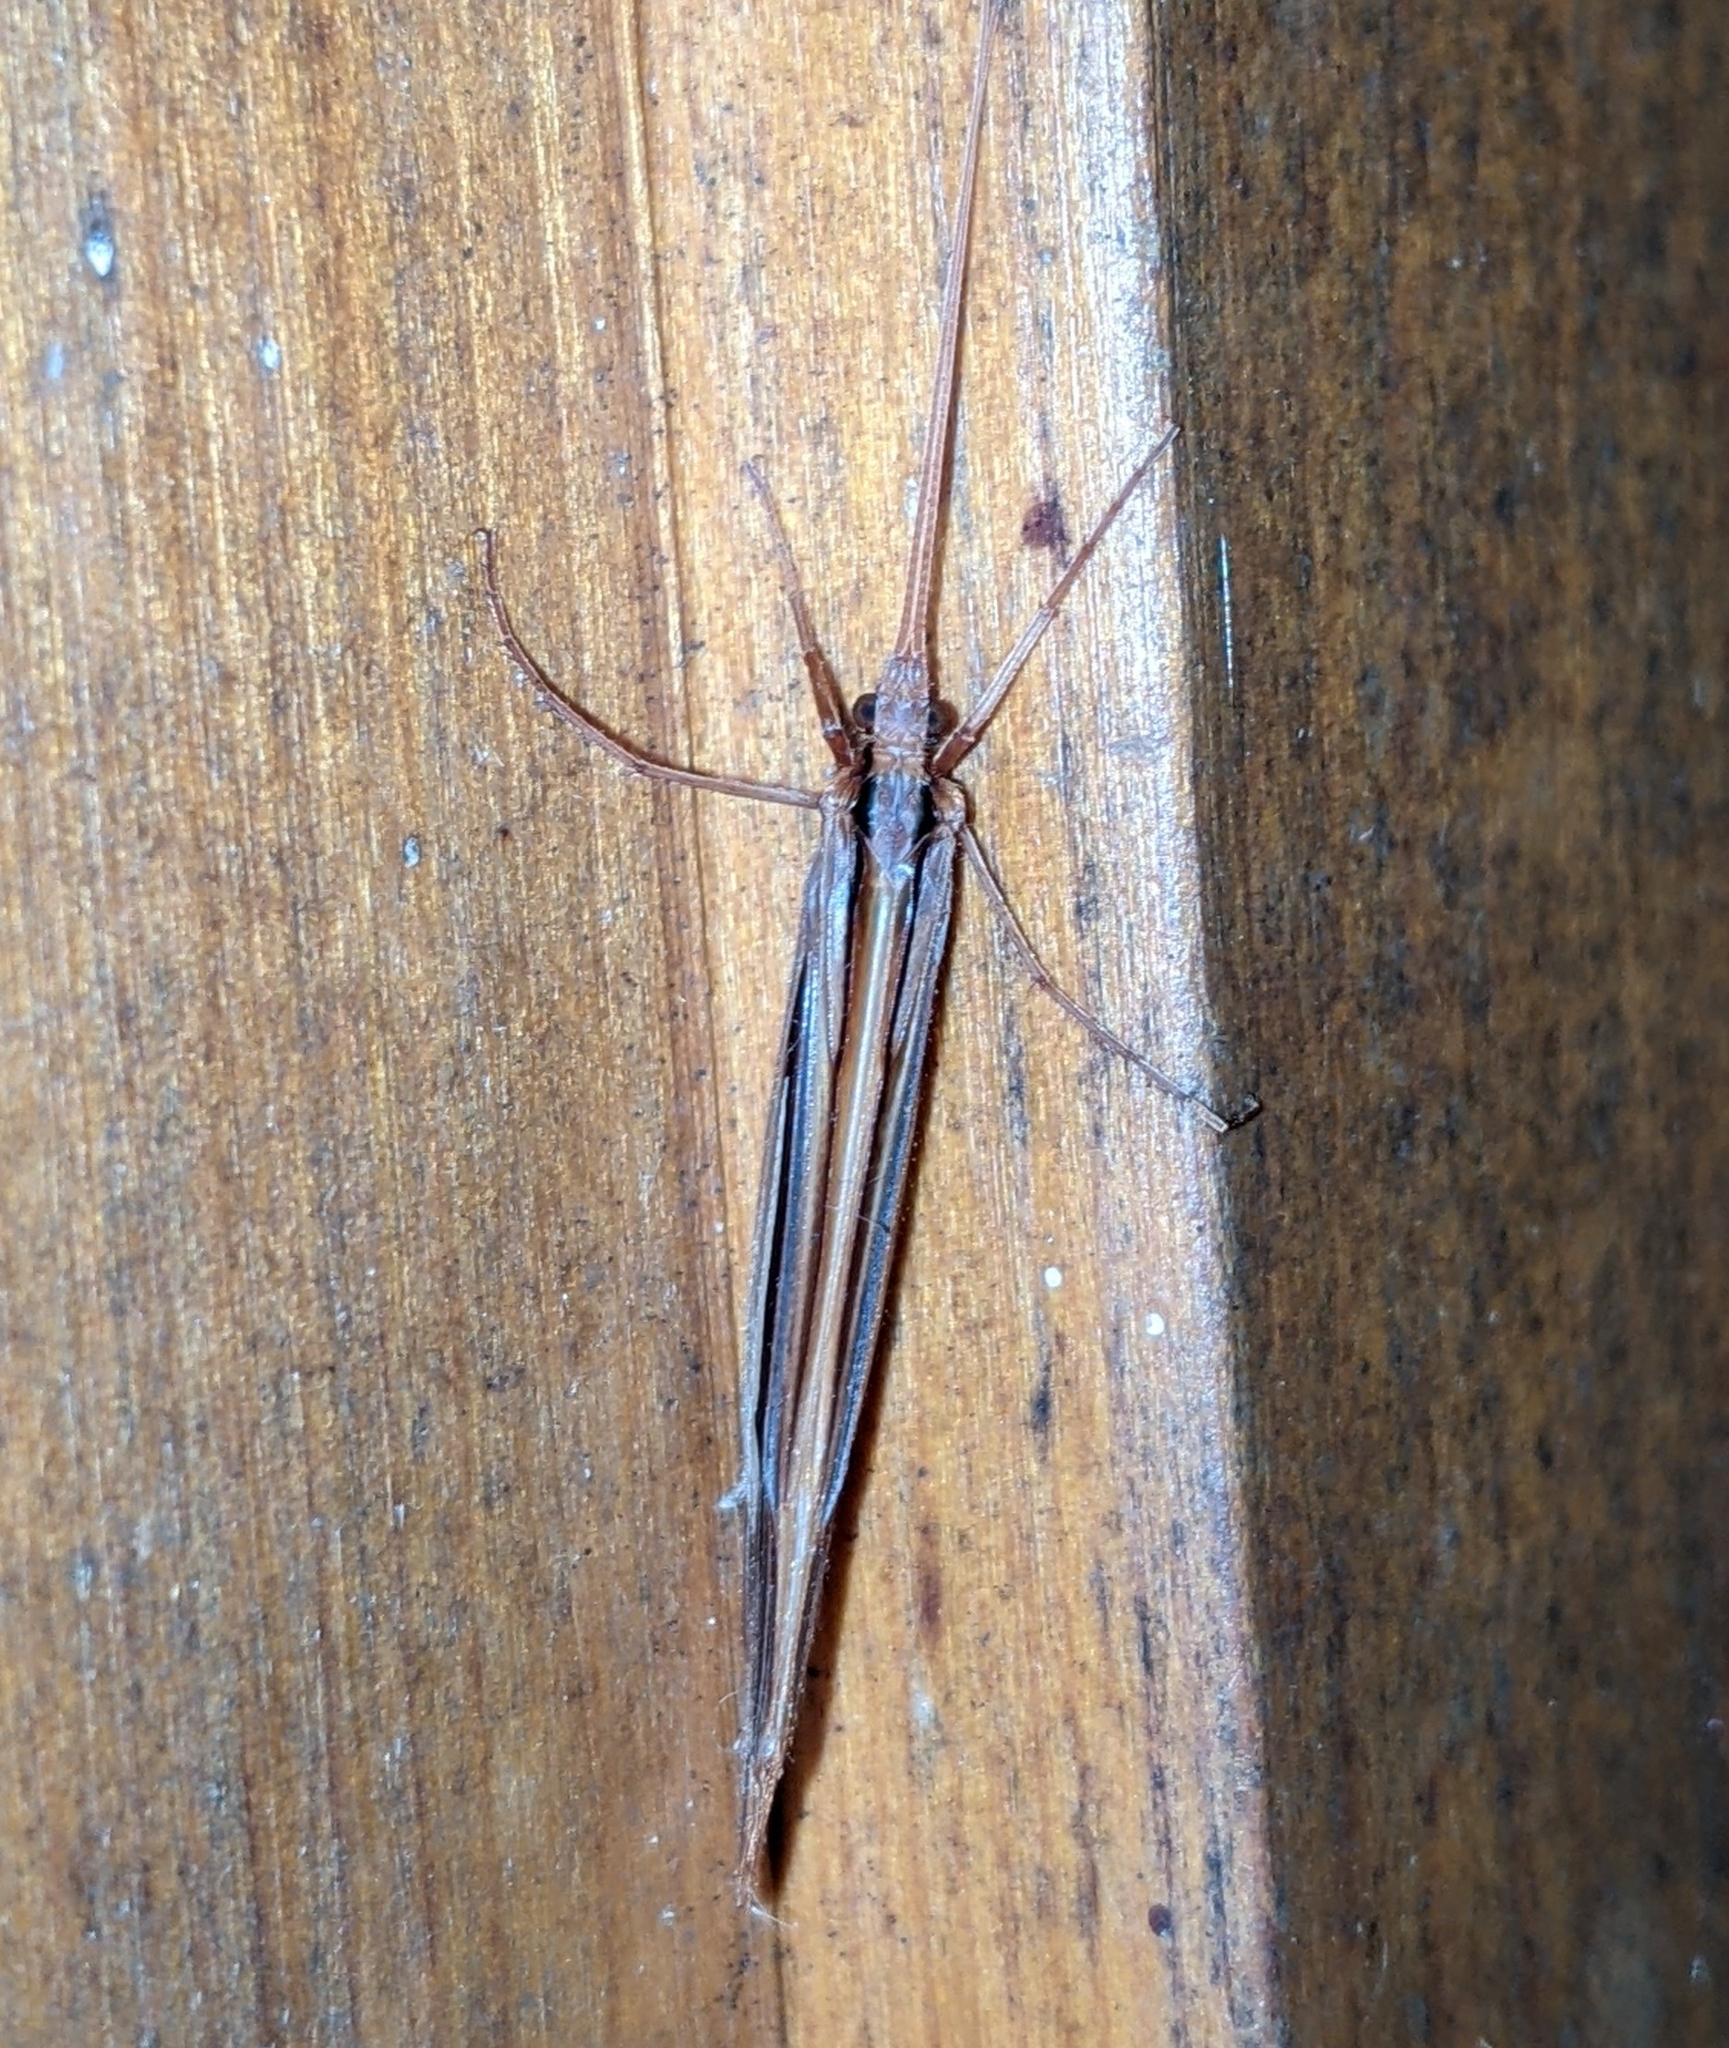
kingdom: Animalia
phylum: Arthropoda
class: Insecta
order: Trichoptera
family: Limnephilidae
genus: Psychoglypha
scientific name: Psychoglypha bella
